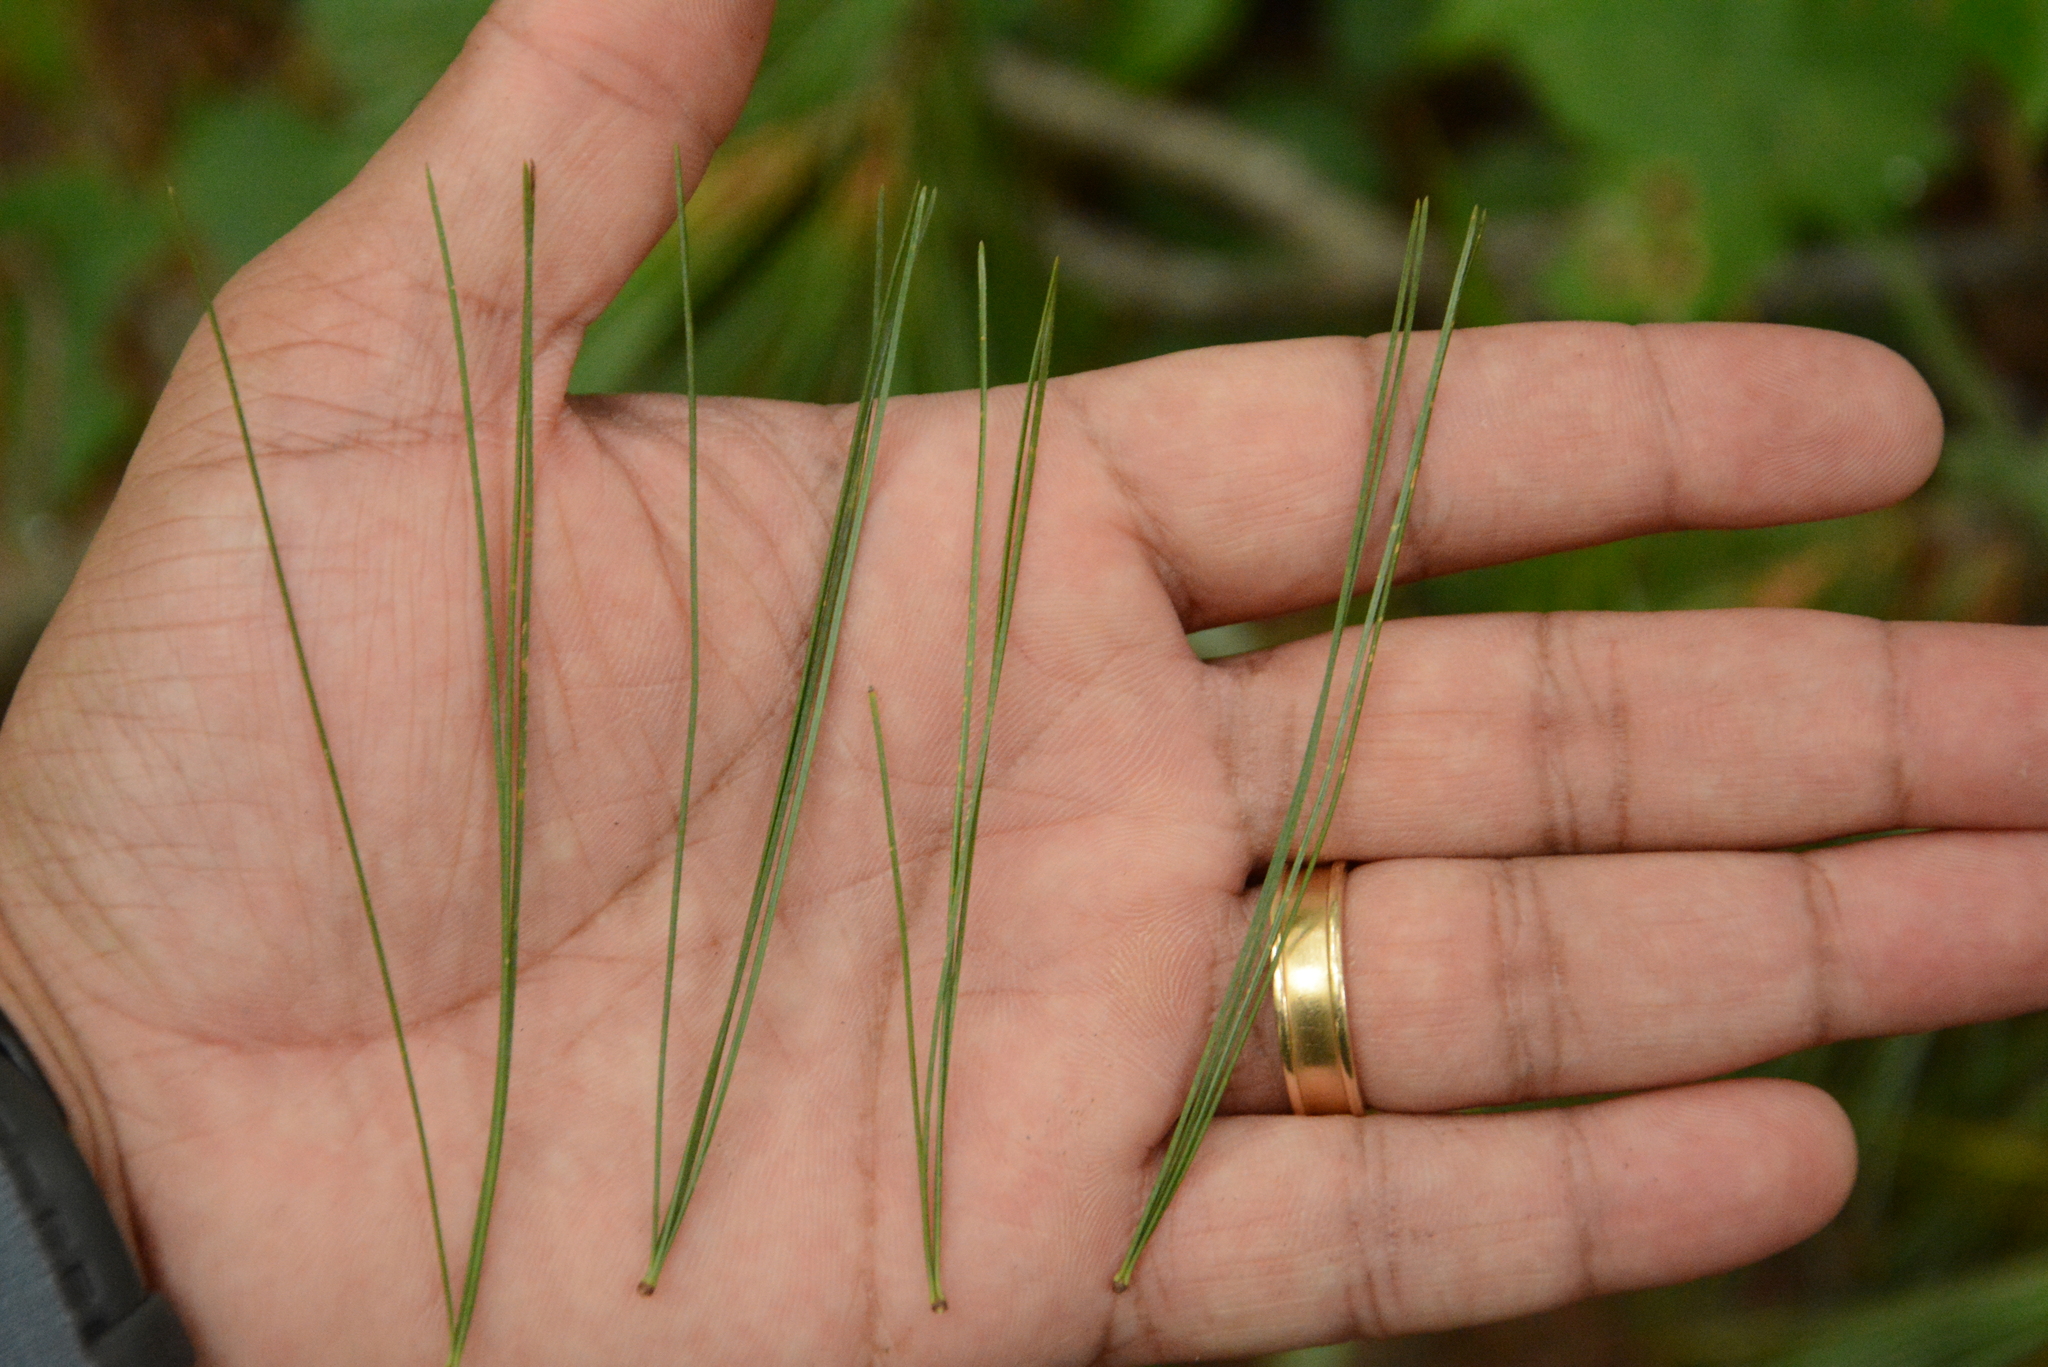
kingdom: Plantae
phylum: Tracheophyta
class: Pinopsida
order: Pinales
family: Pinaceae
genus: Pinus
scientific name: Pinus strobus
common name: Weymouth pine
